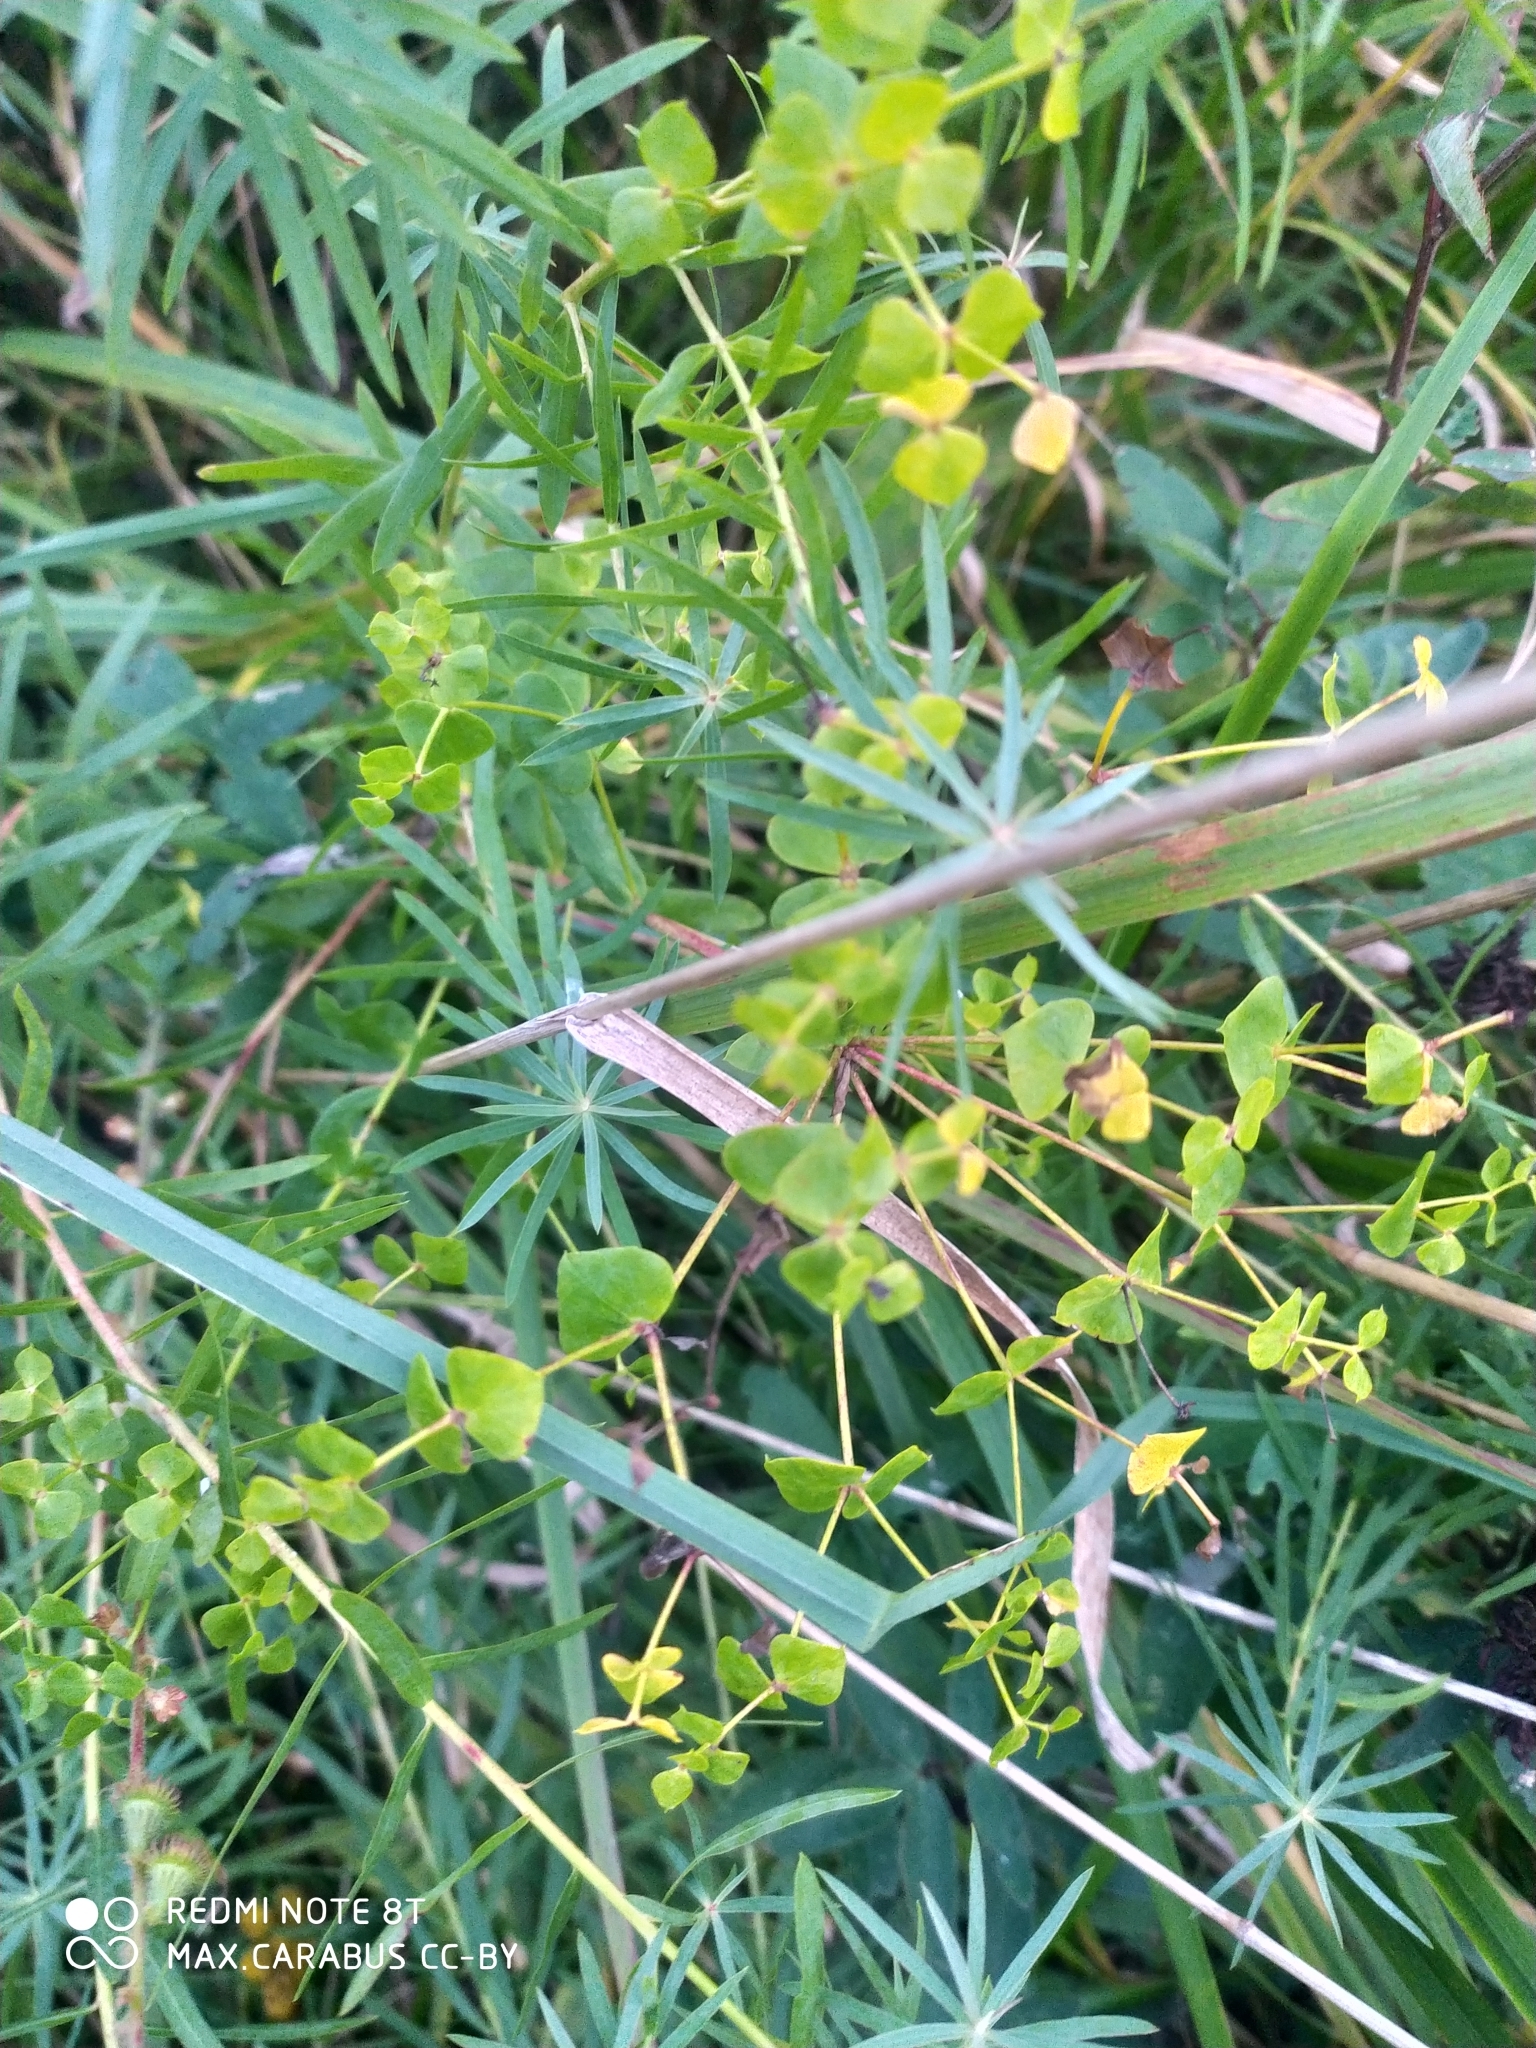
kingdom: Plantae
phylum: Tracheophyta
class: Magnoliopsida
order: Malpighiales
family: Euphorbiaceae
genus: Euphorbia
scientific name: Euphorbia virgata
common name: Leafy spurge
